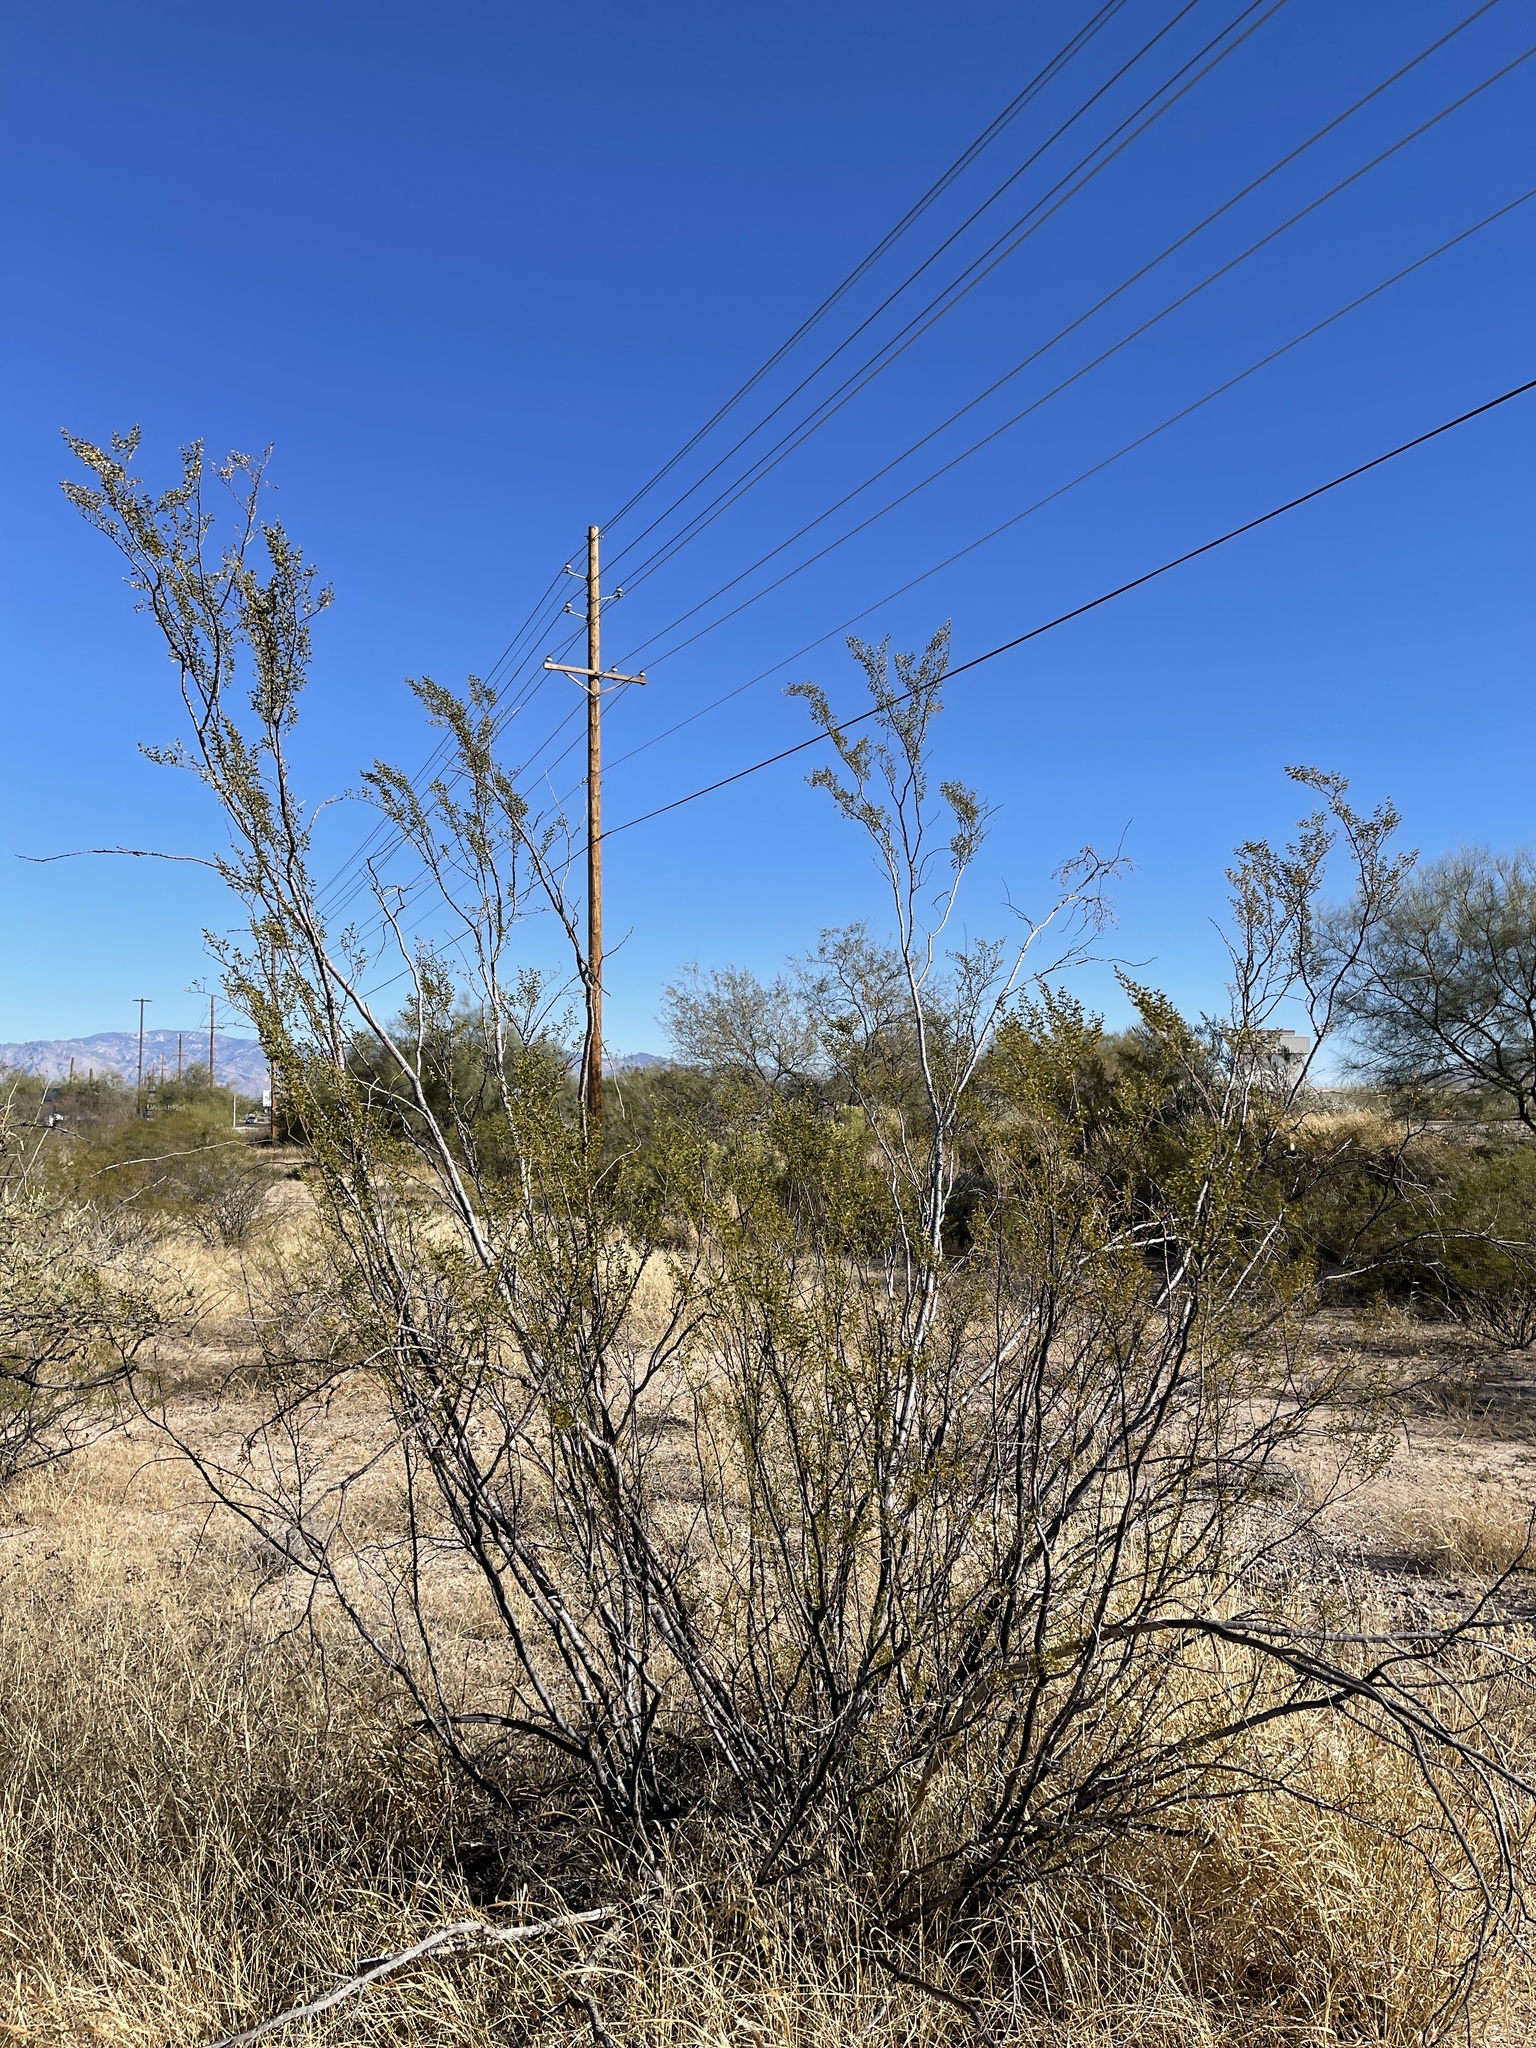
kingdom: Plantae
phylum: Tracheophyta
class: Magnoliopsida
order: Zygophyllales
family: Zygophyllaceae
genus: Larrea
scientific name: Larrea tridentata
